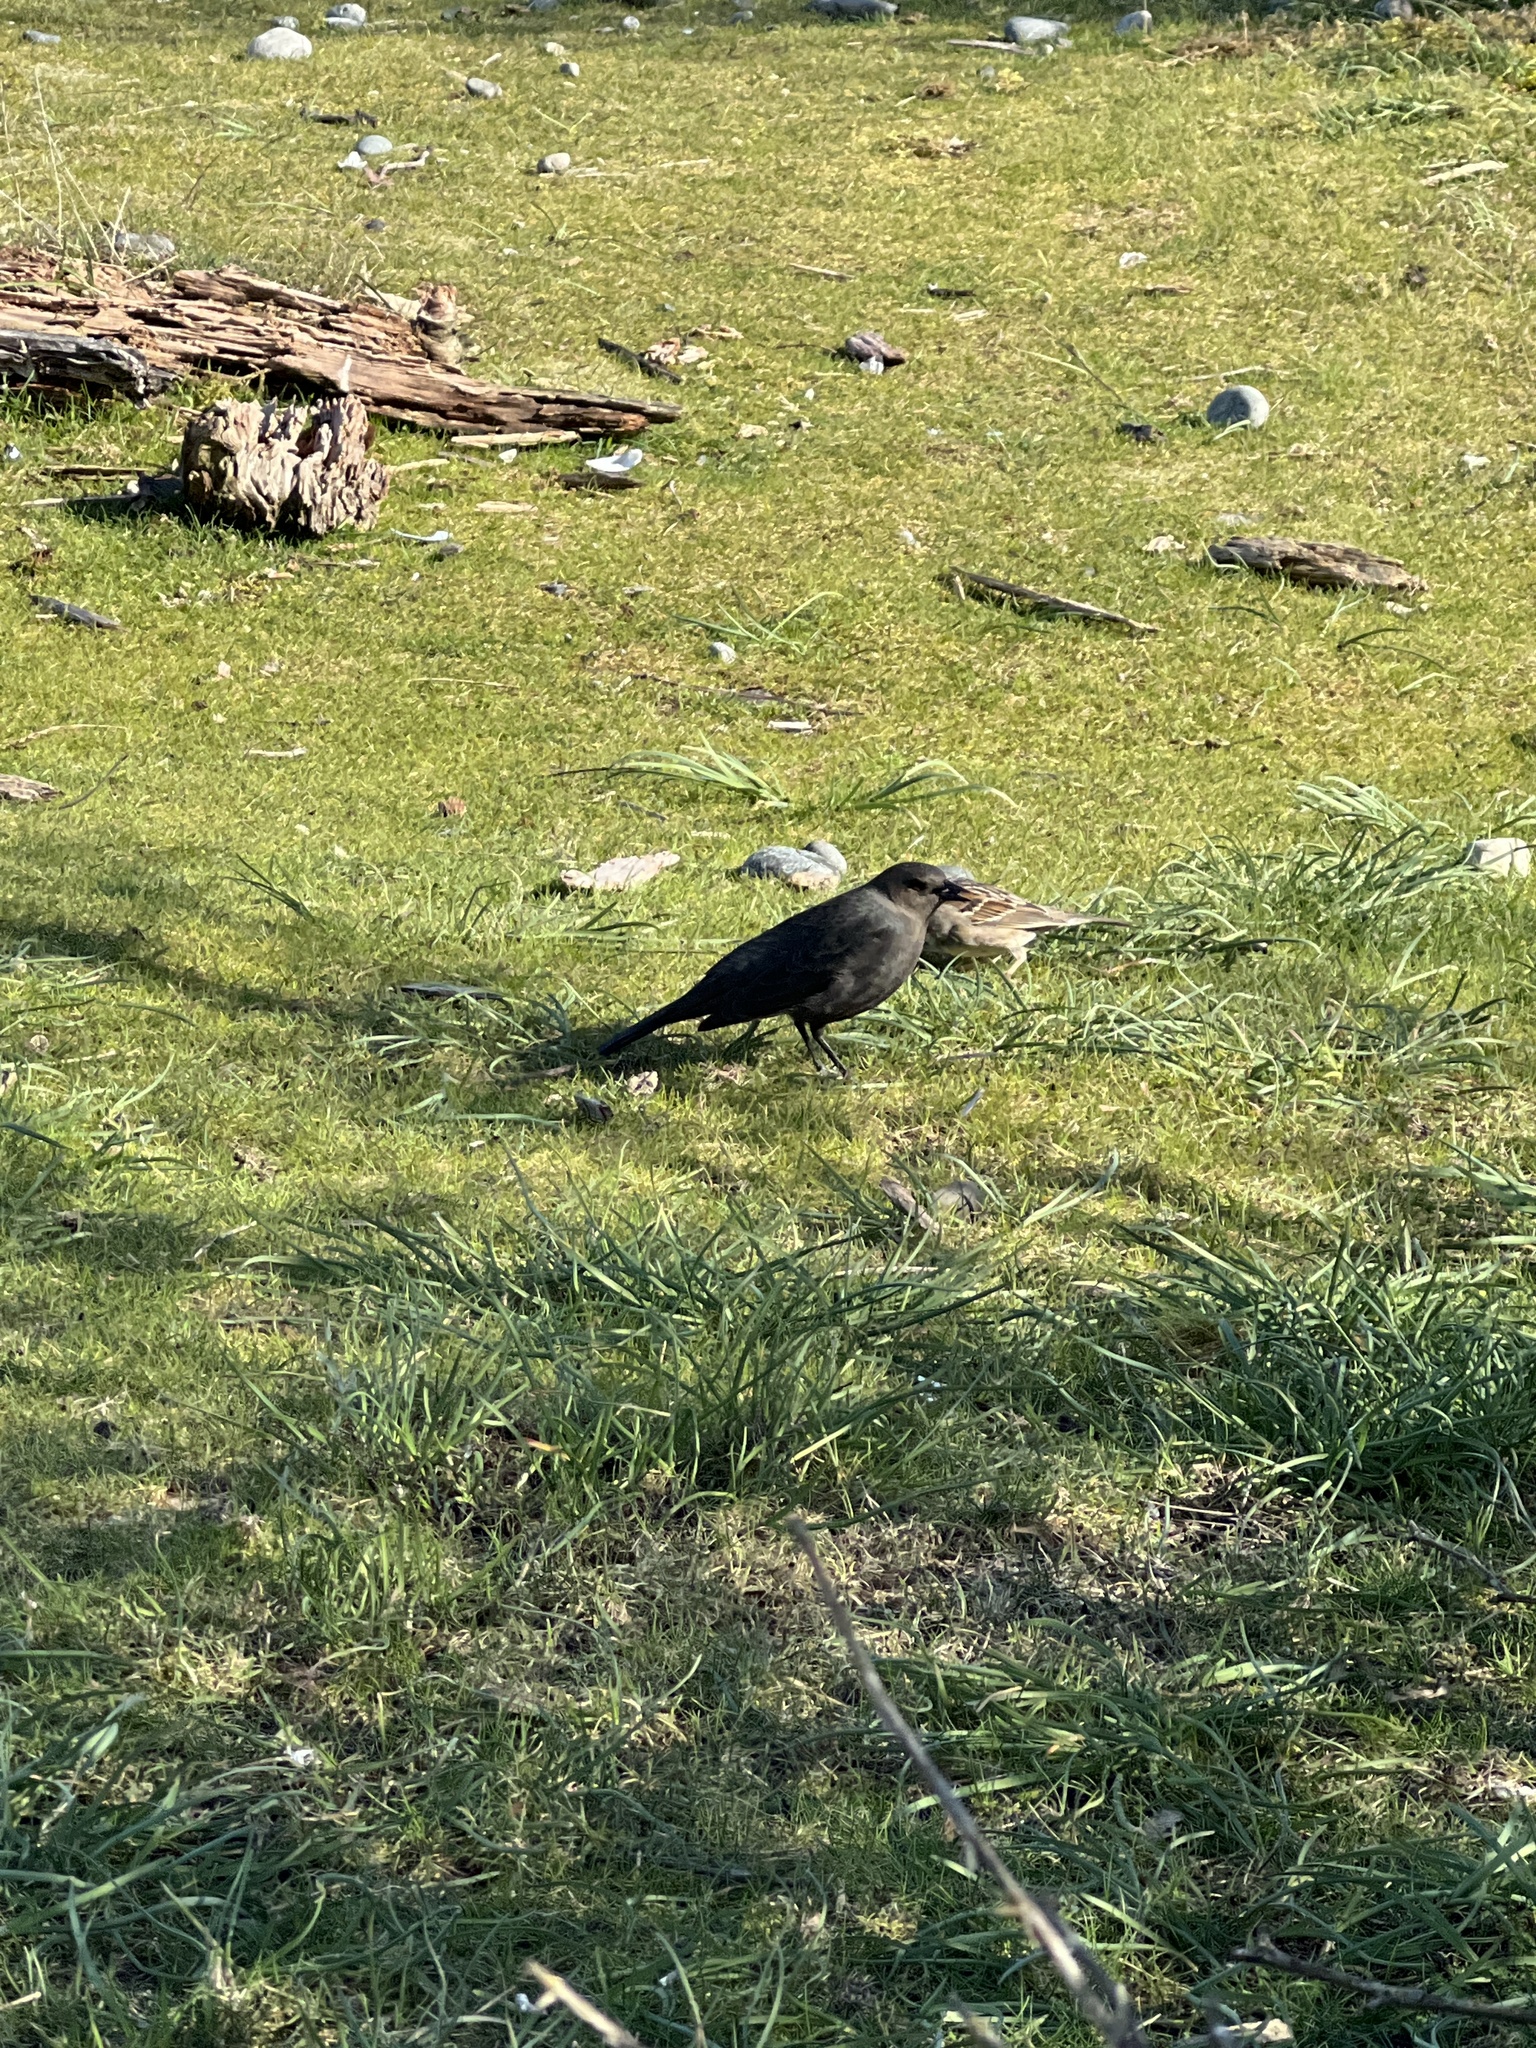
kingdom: Animalia
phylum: Chordata
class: Aves
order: Passeriformes
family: Icteridae
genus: Euphagus
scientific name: Euphagus cyanocephalus
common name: Brewer's blackbird
